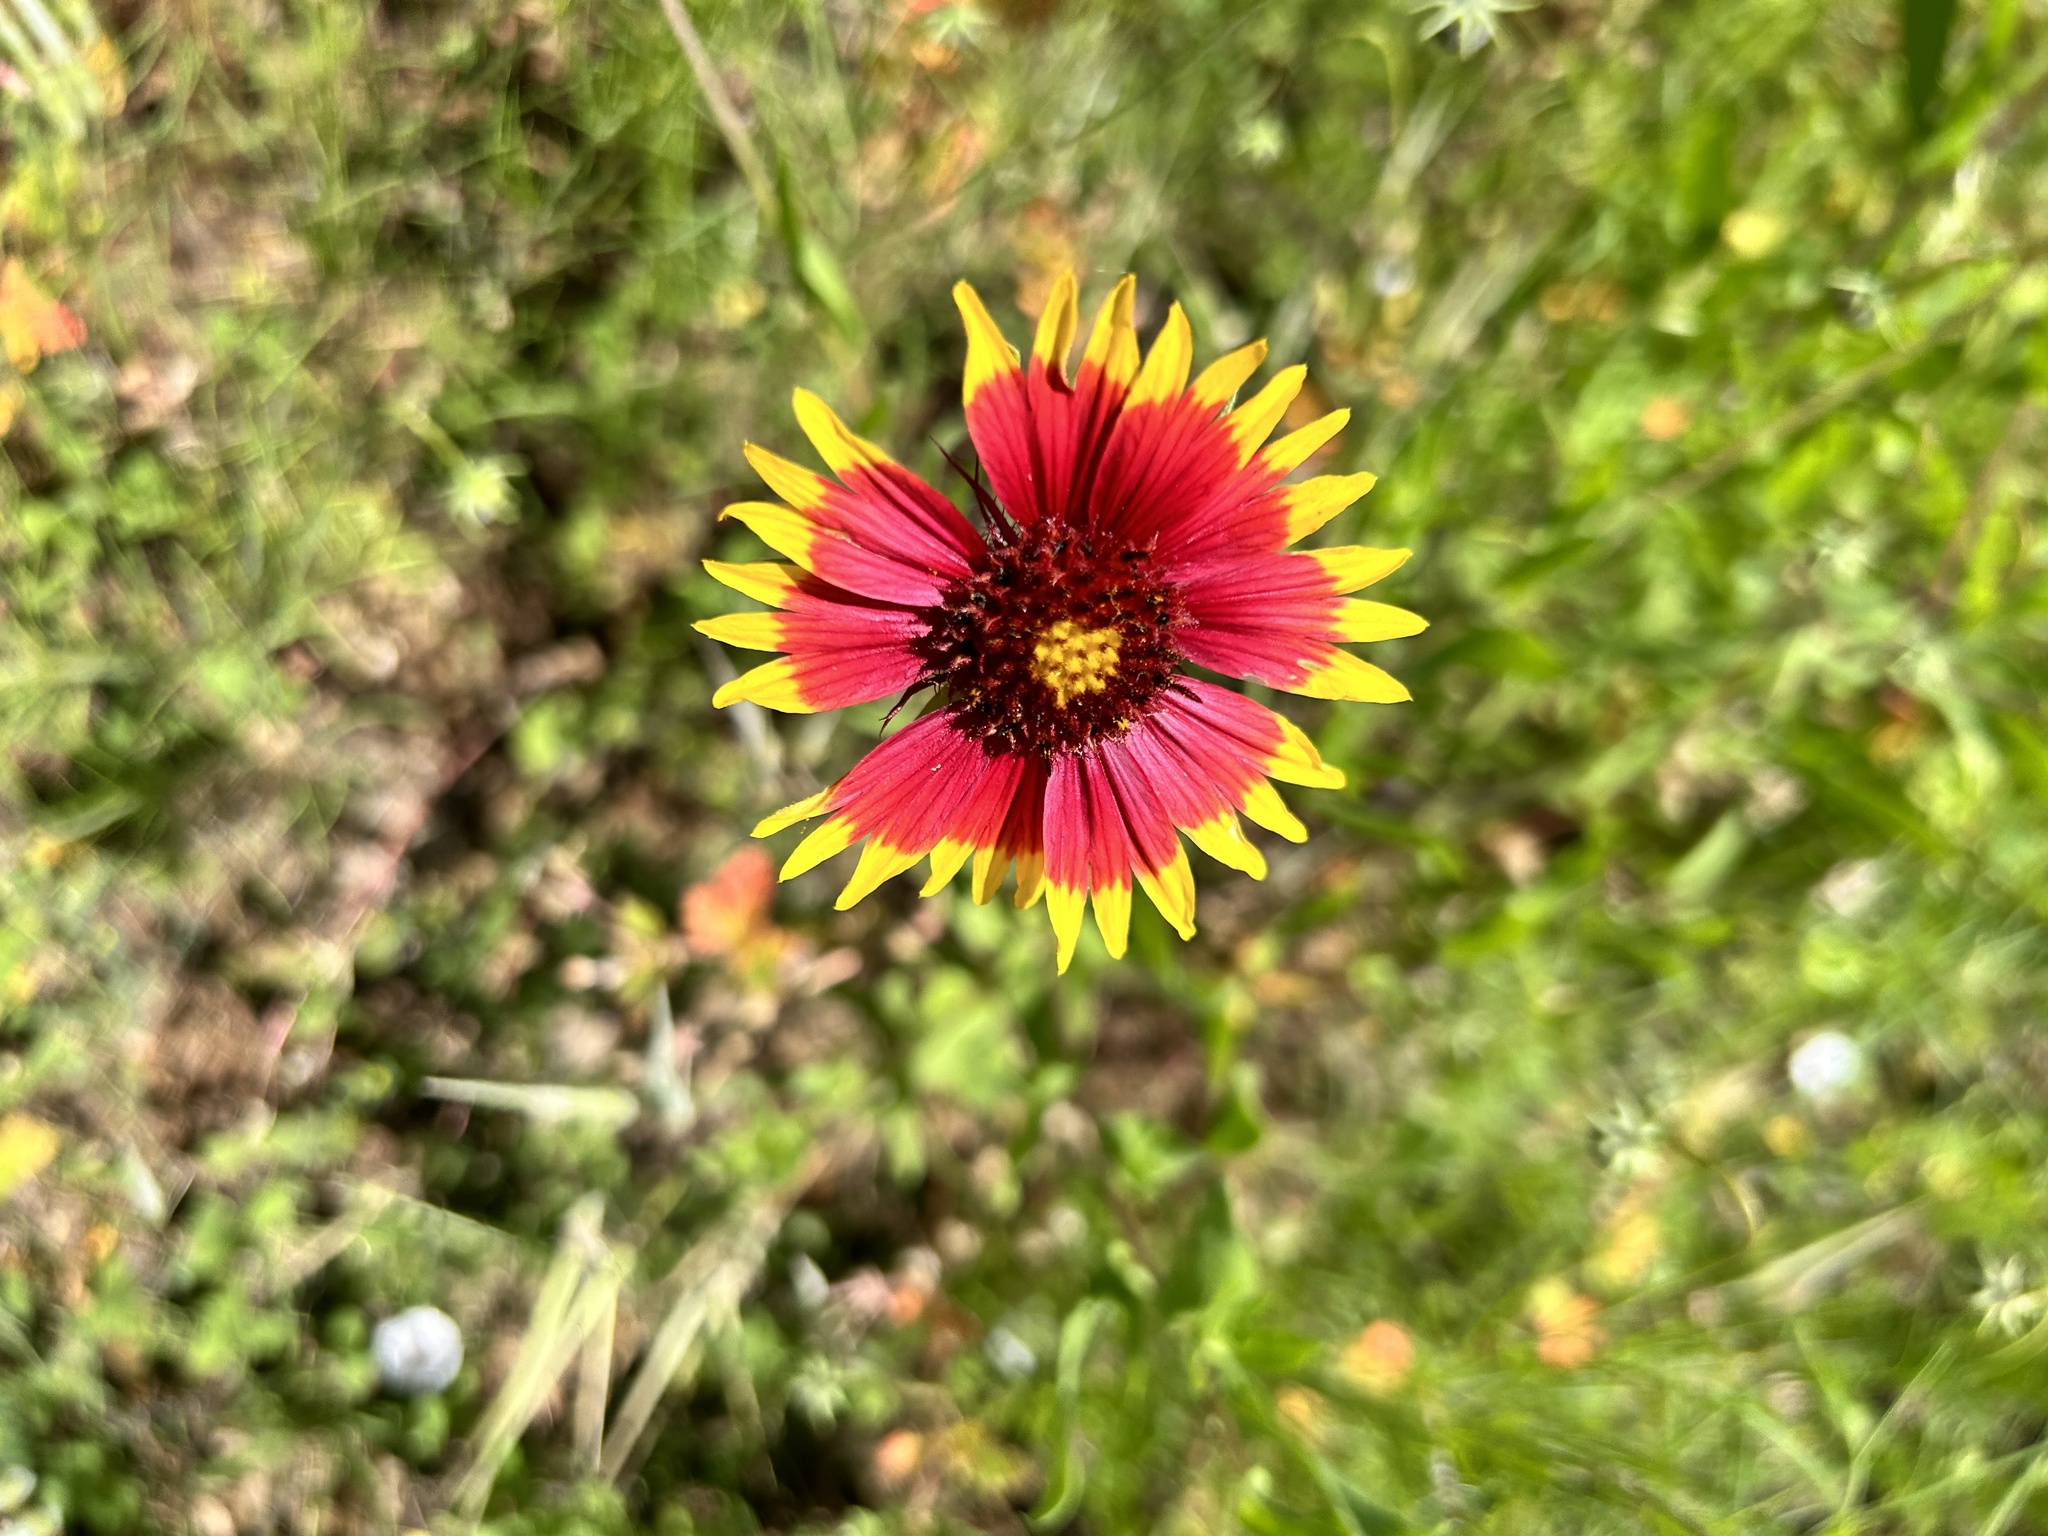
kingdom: Plantae
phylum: Tracheophyta
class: Magnoliopsida
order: Asterales
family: Asteraceae
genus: Gaillardia
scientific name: Gaillardia pulchella
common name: Firewheel
